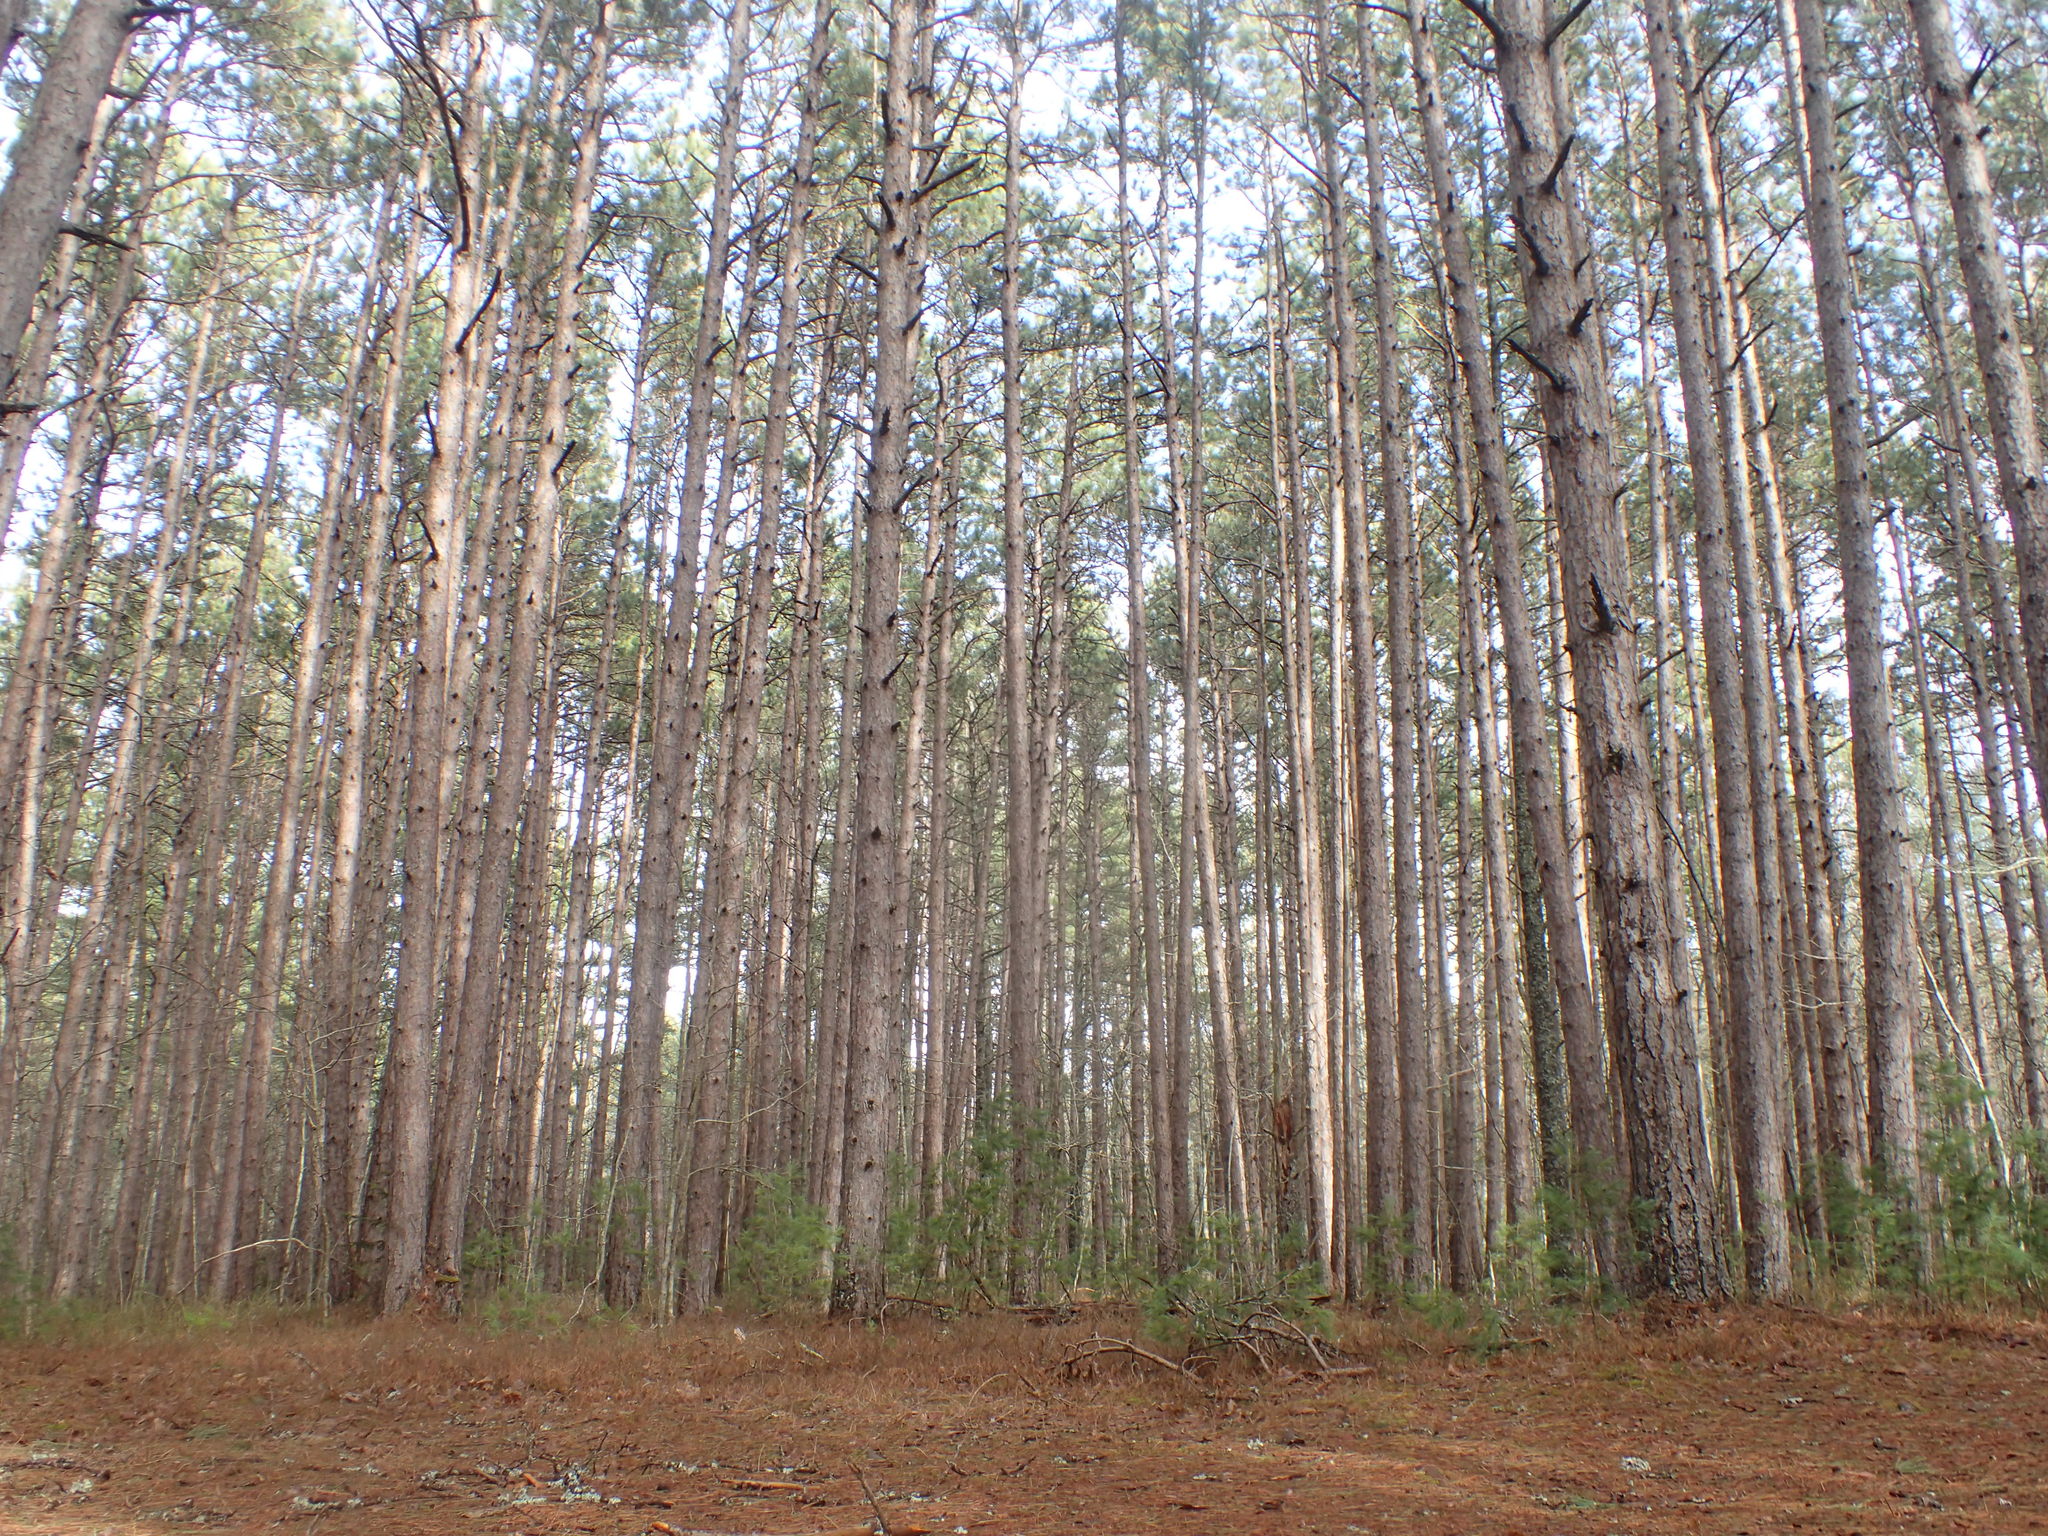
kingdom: Plantae
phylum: Tracheophyta
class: Pinopsida
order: Pinales
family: Pinaceae
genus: Pinus
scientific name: Pinus resinosa
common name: Norway pine
